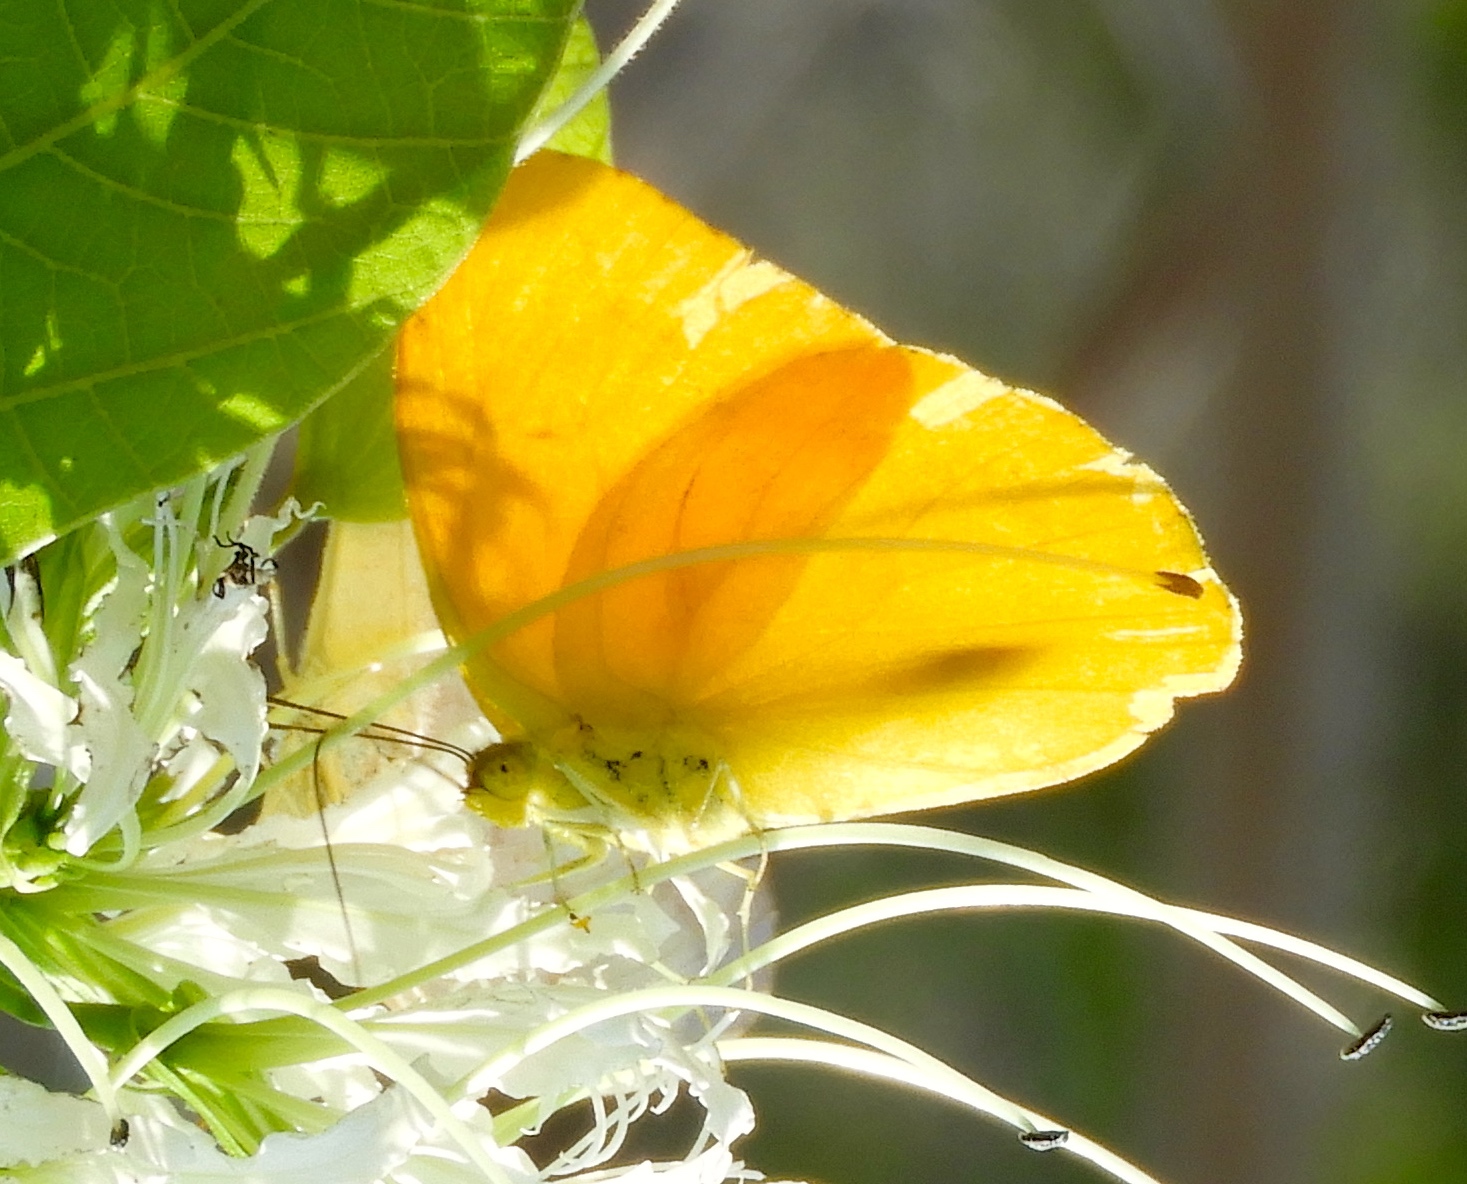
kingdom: Animalia
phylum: Arthropoda
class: Insecta
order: Lepidoptera
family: Pieridae
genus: Phoebis
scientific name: Phoebis agarithe
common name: Large orange sulphur
